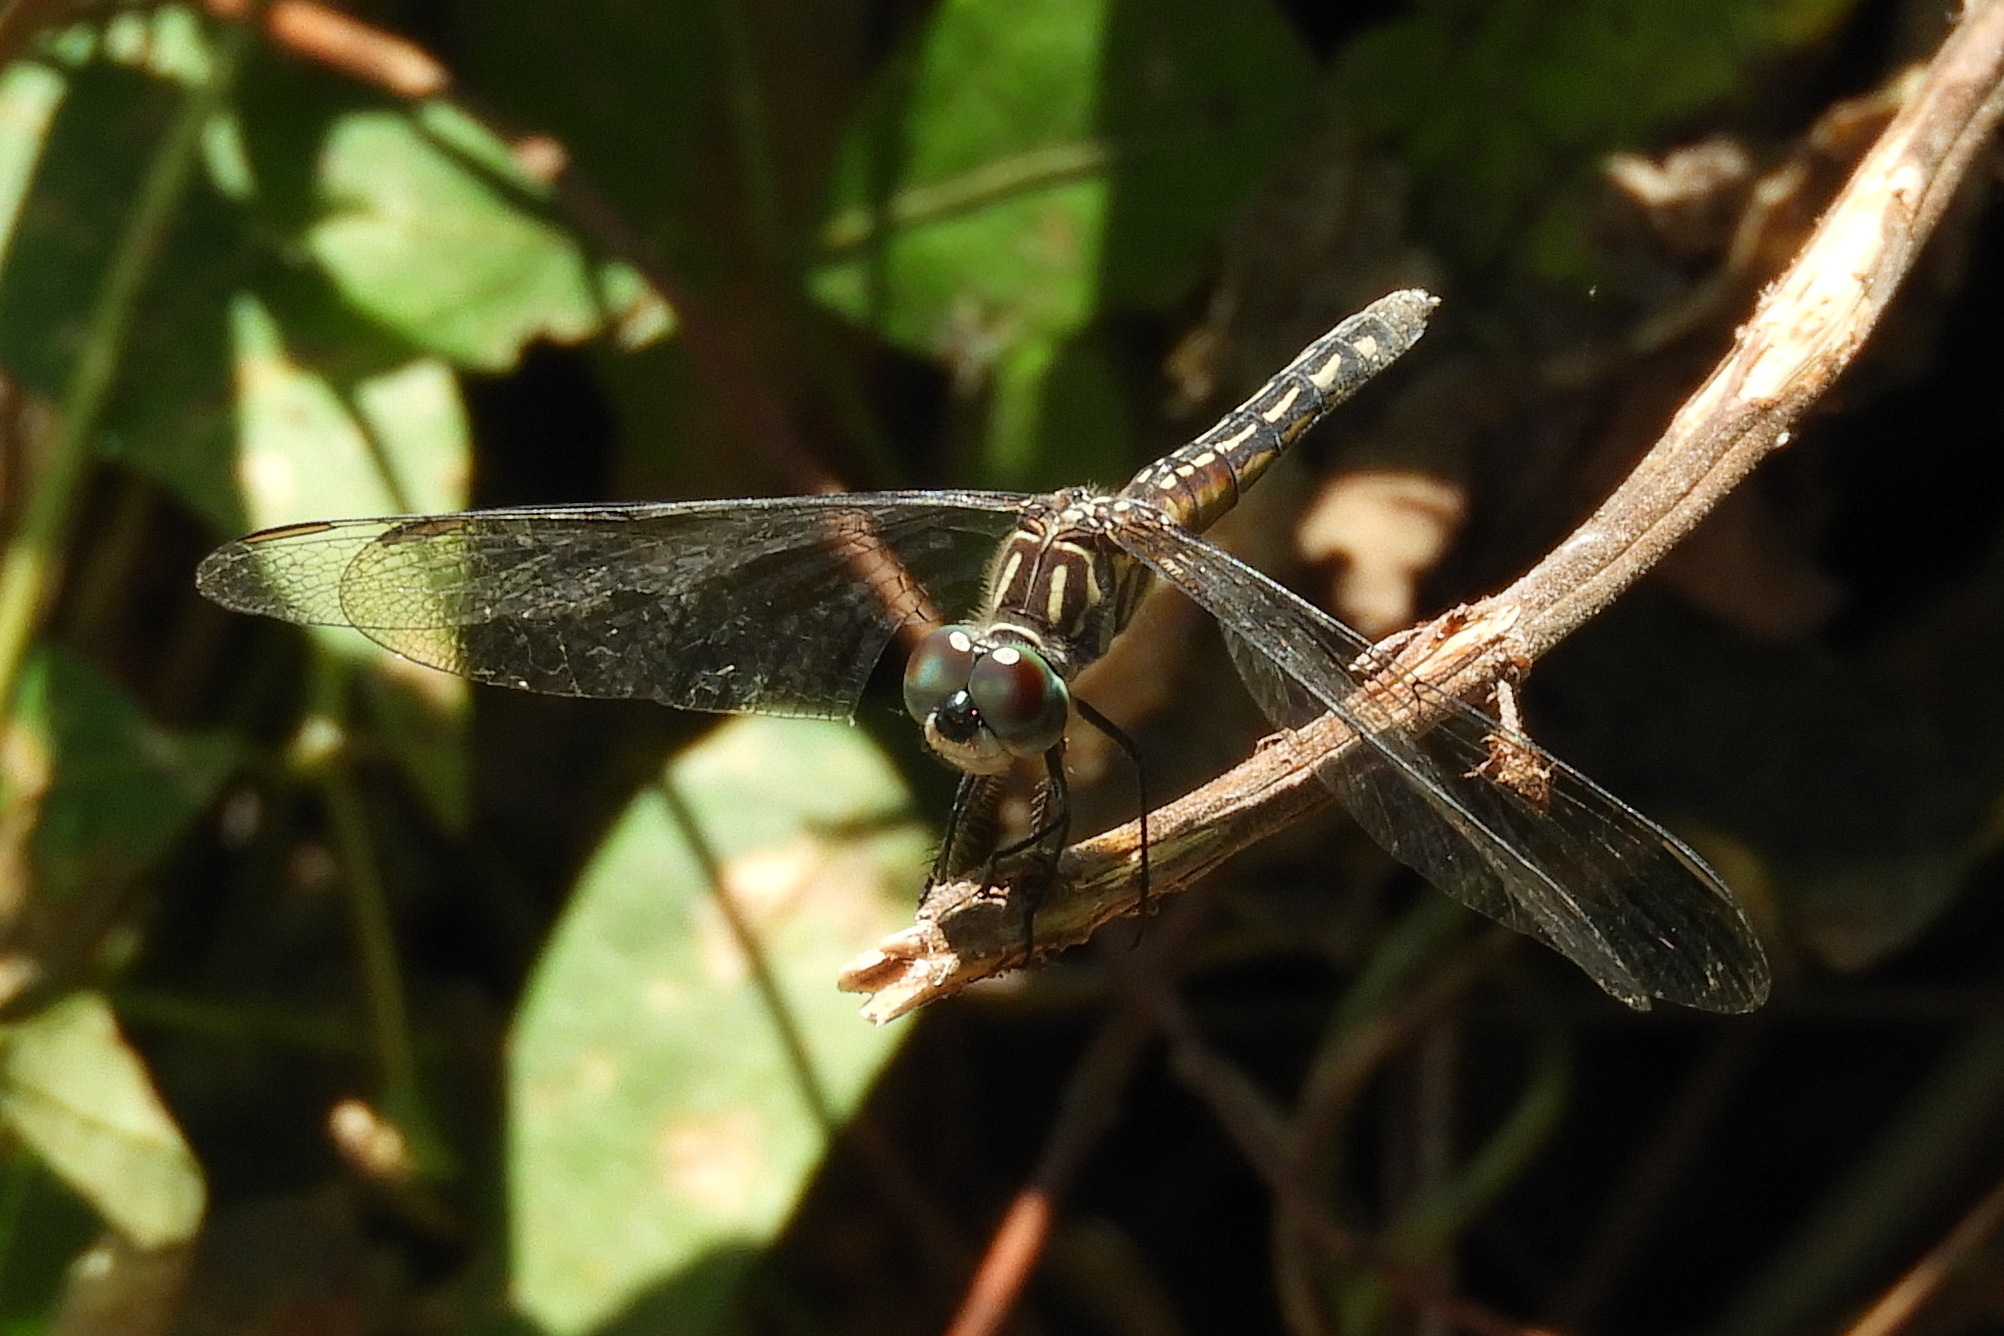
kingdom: Animalia
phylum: Arthropoda
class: Insecta
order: Odonata
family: Libellulidae
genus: Pachydiplax
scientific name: Pachydiplax longipennis
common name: Blue dasher
